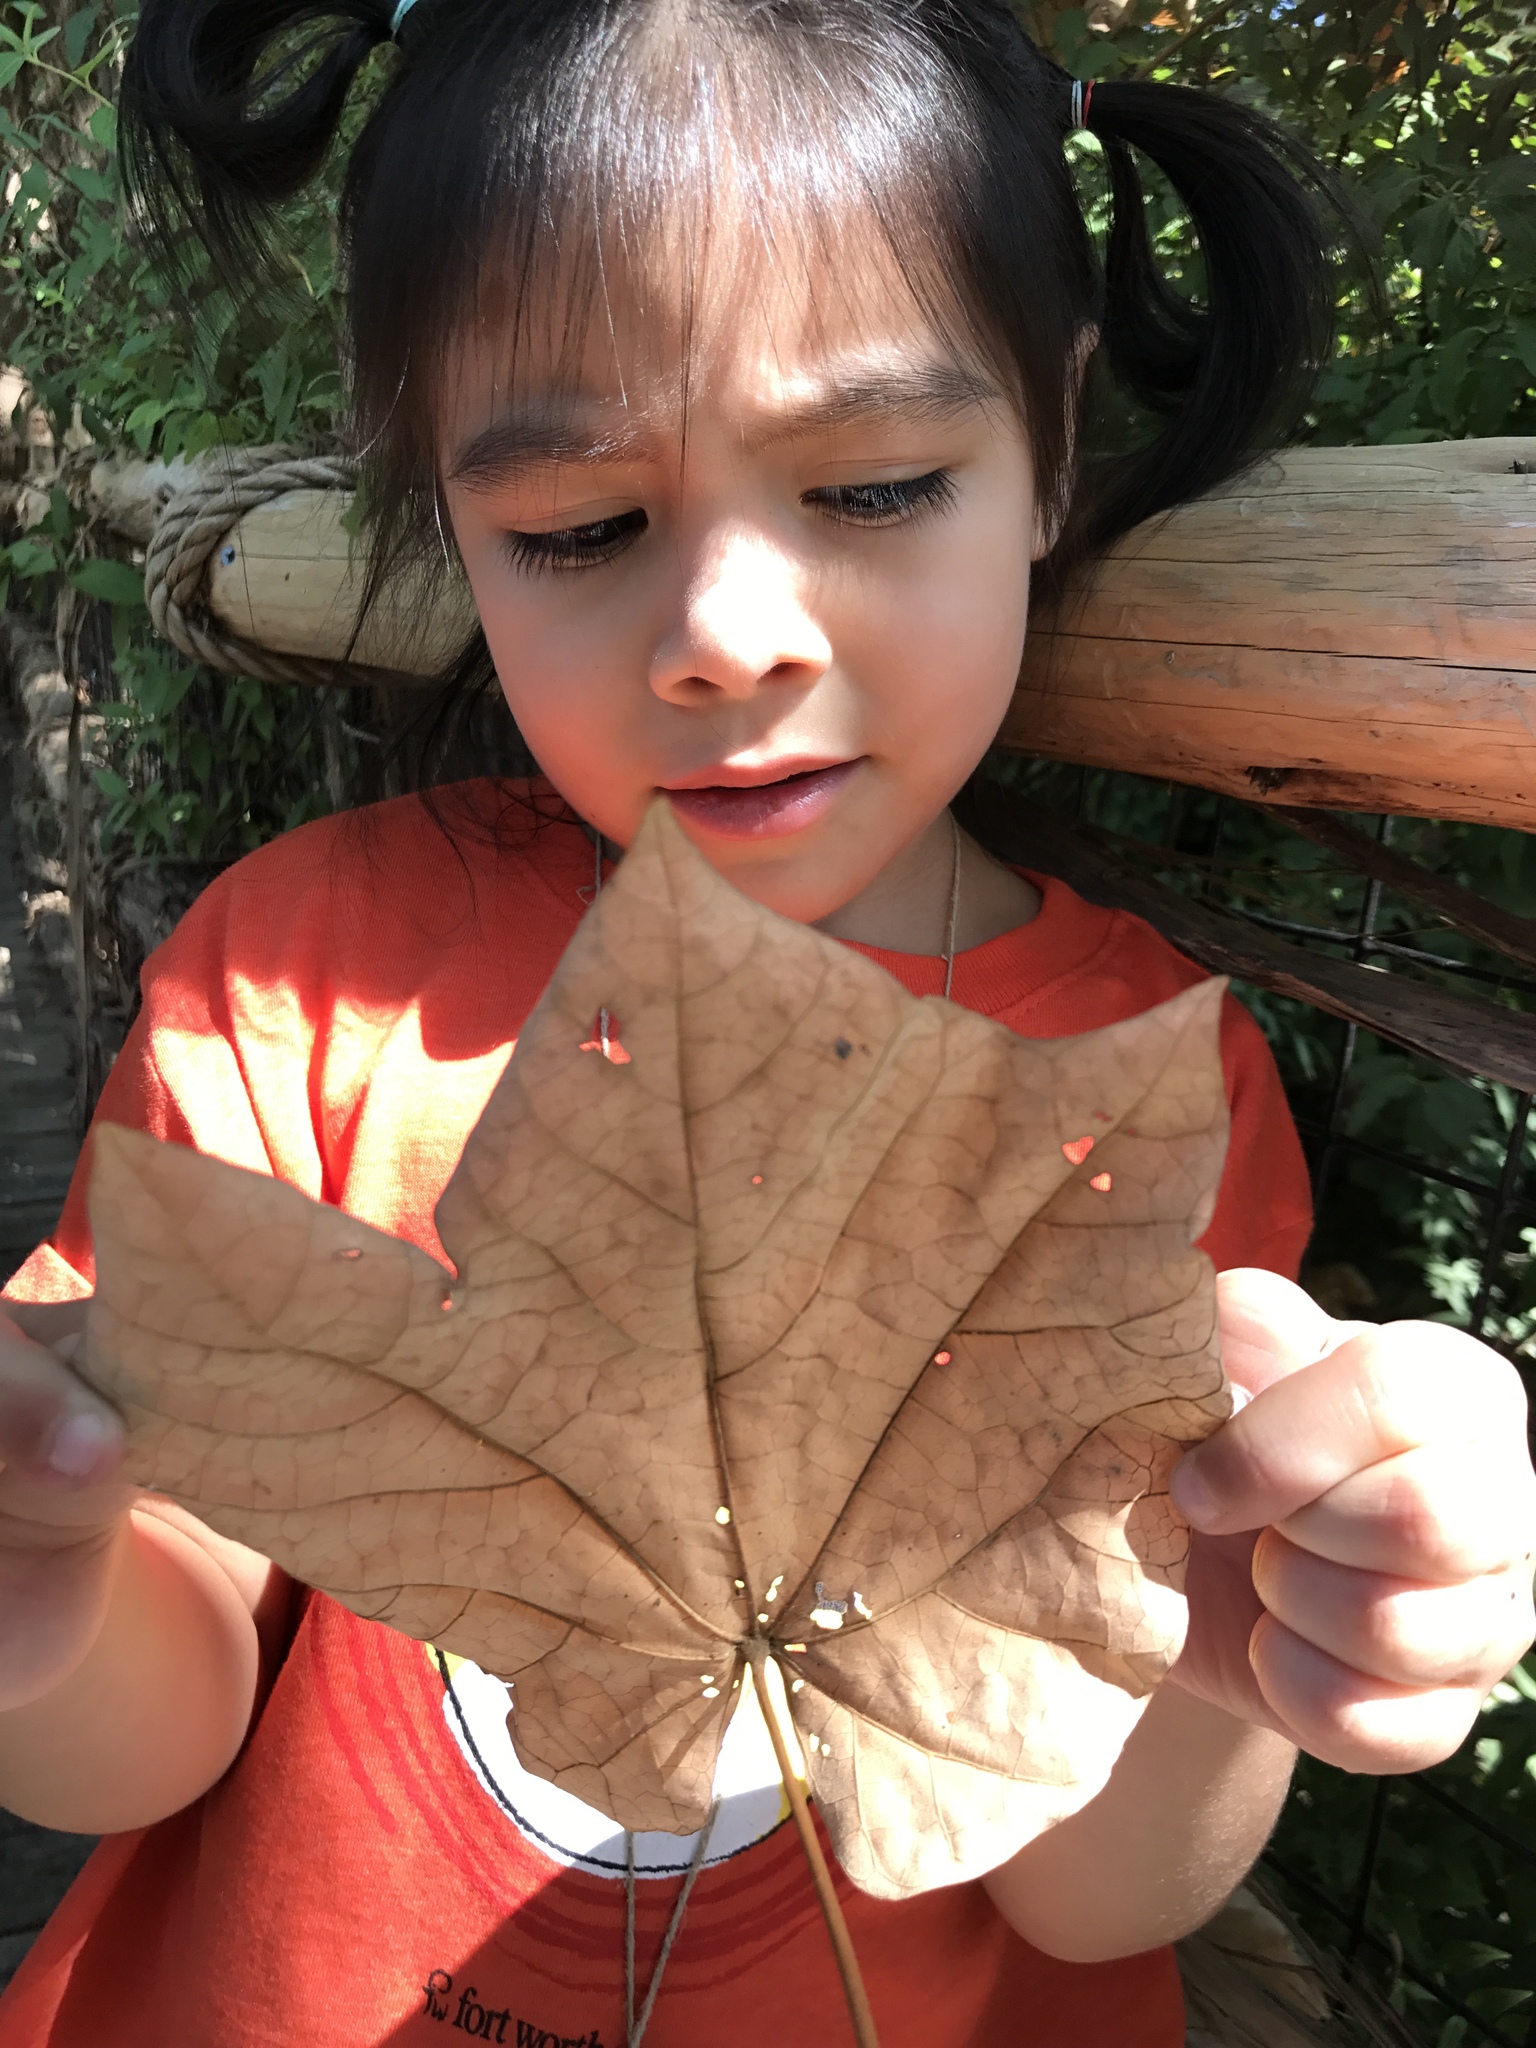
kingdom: Plantae
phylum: Tracheophyta
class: Magnoliopsida
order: Malvales
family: Malvaceae
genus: Firmiana
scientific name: Firmiana simplex
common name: Chinese parasoltree
